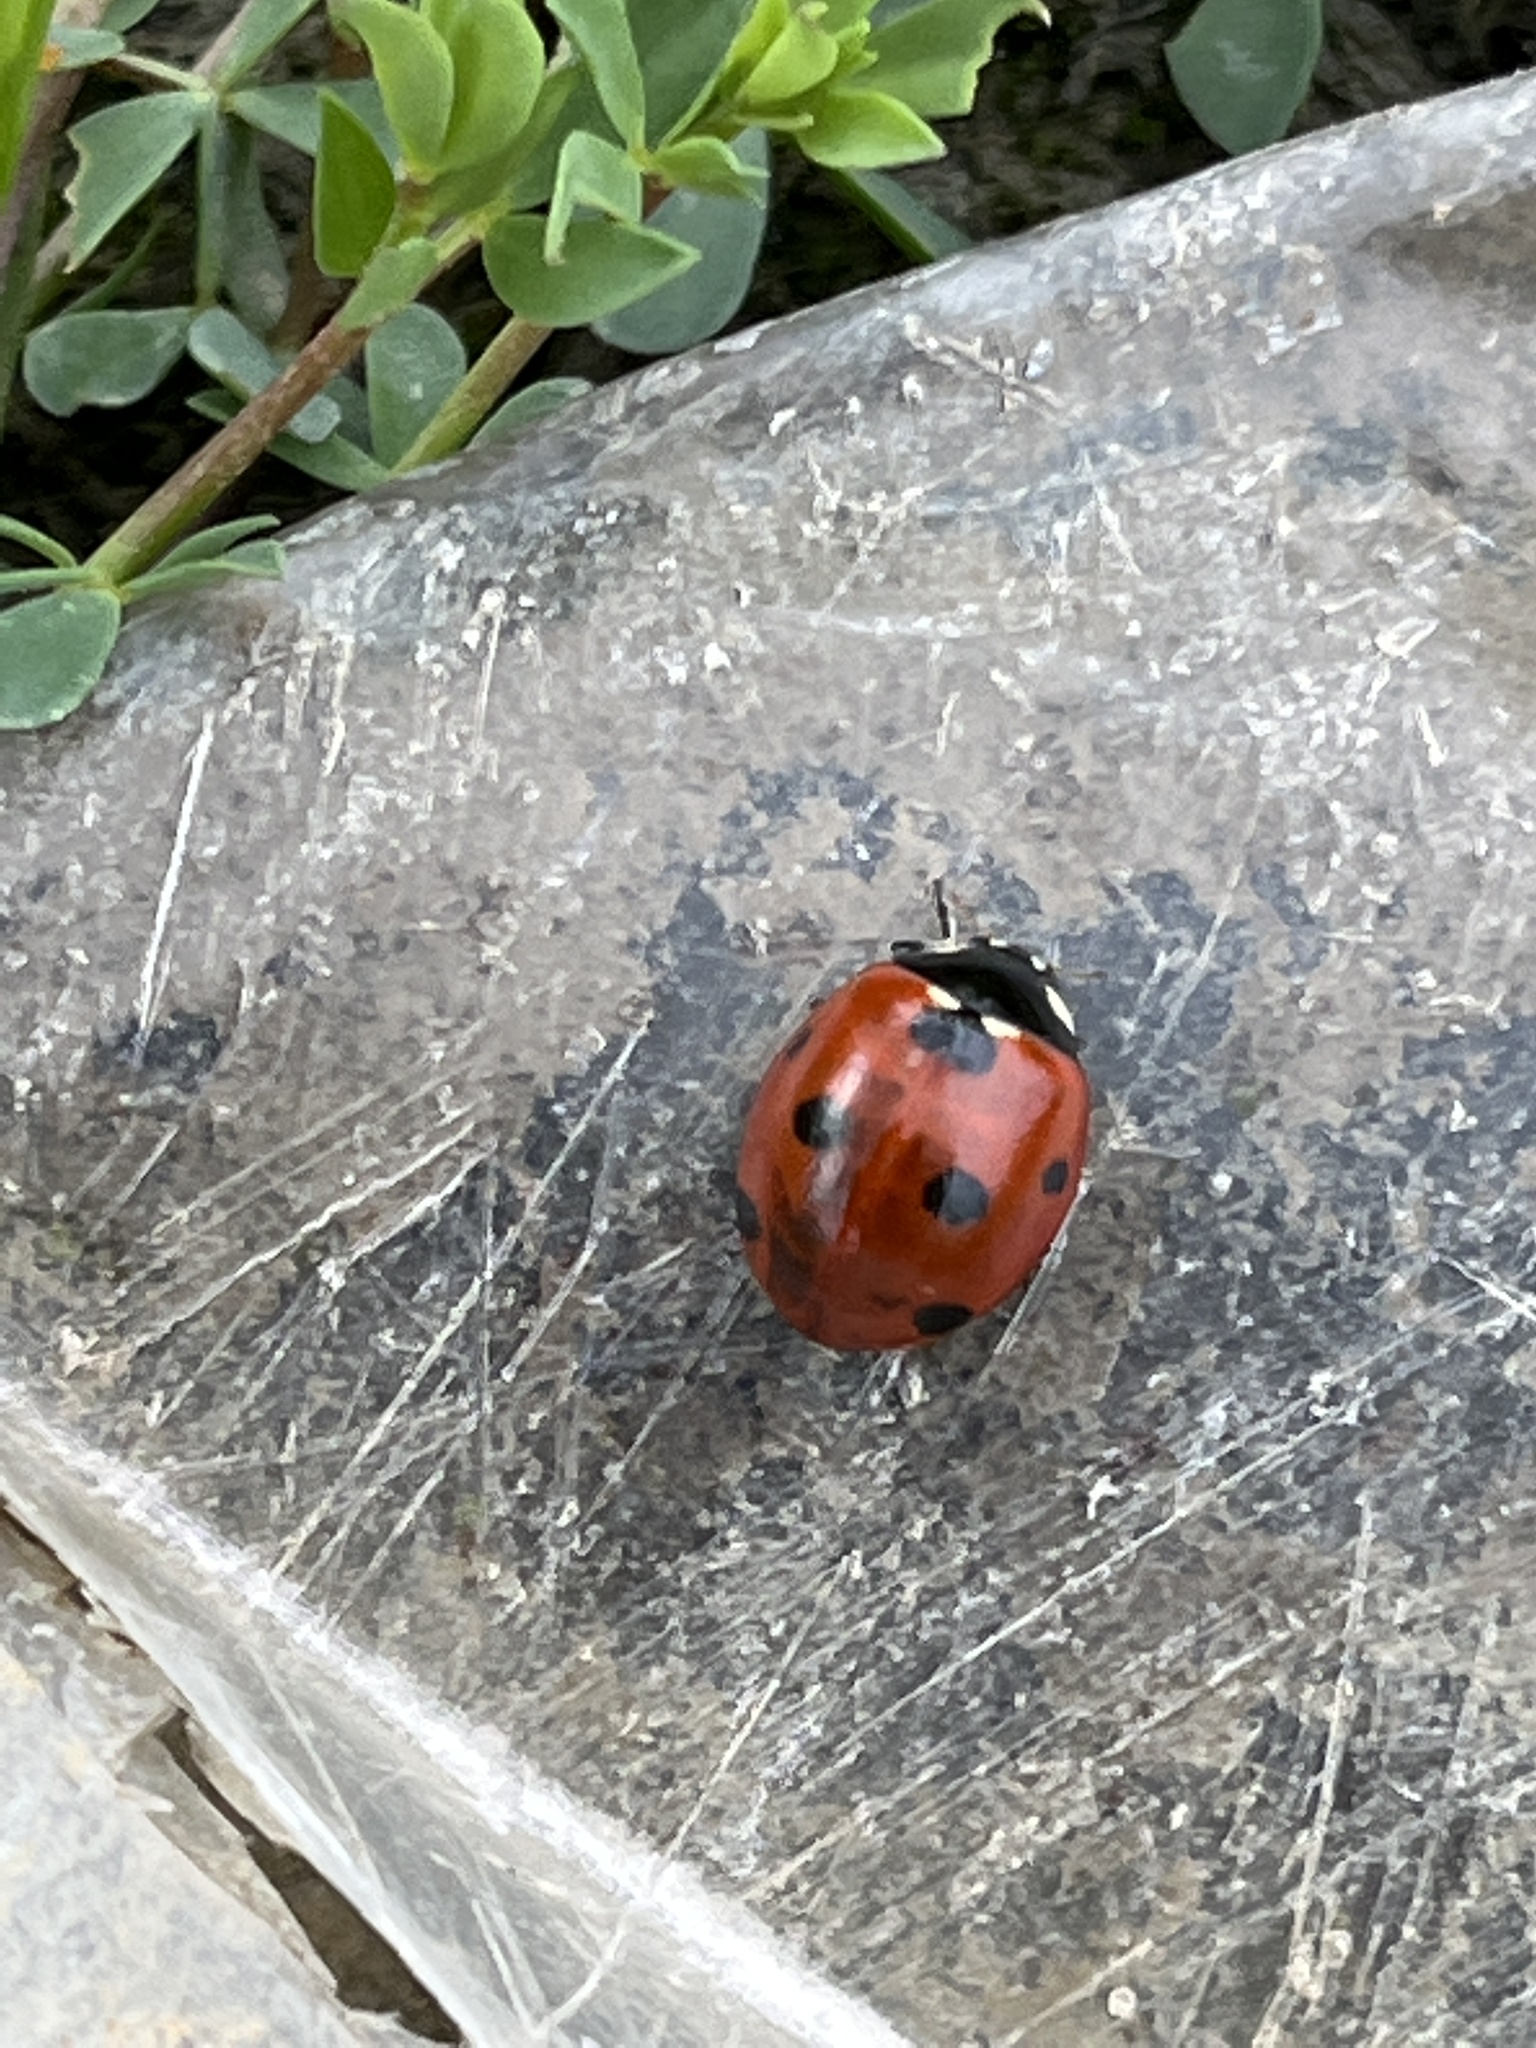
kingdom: Animalia
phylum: Arthropoda
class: Insecta
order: Coleoptera
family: Coccinellidae
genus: Coccinella
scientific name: Coccinella septempunctata
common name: Sevenspotted lady beetle
